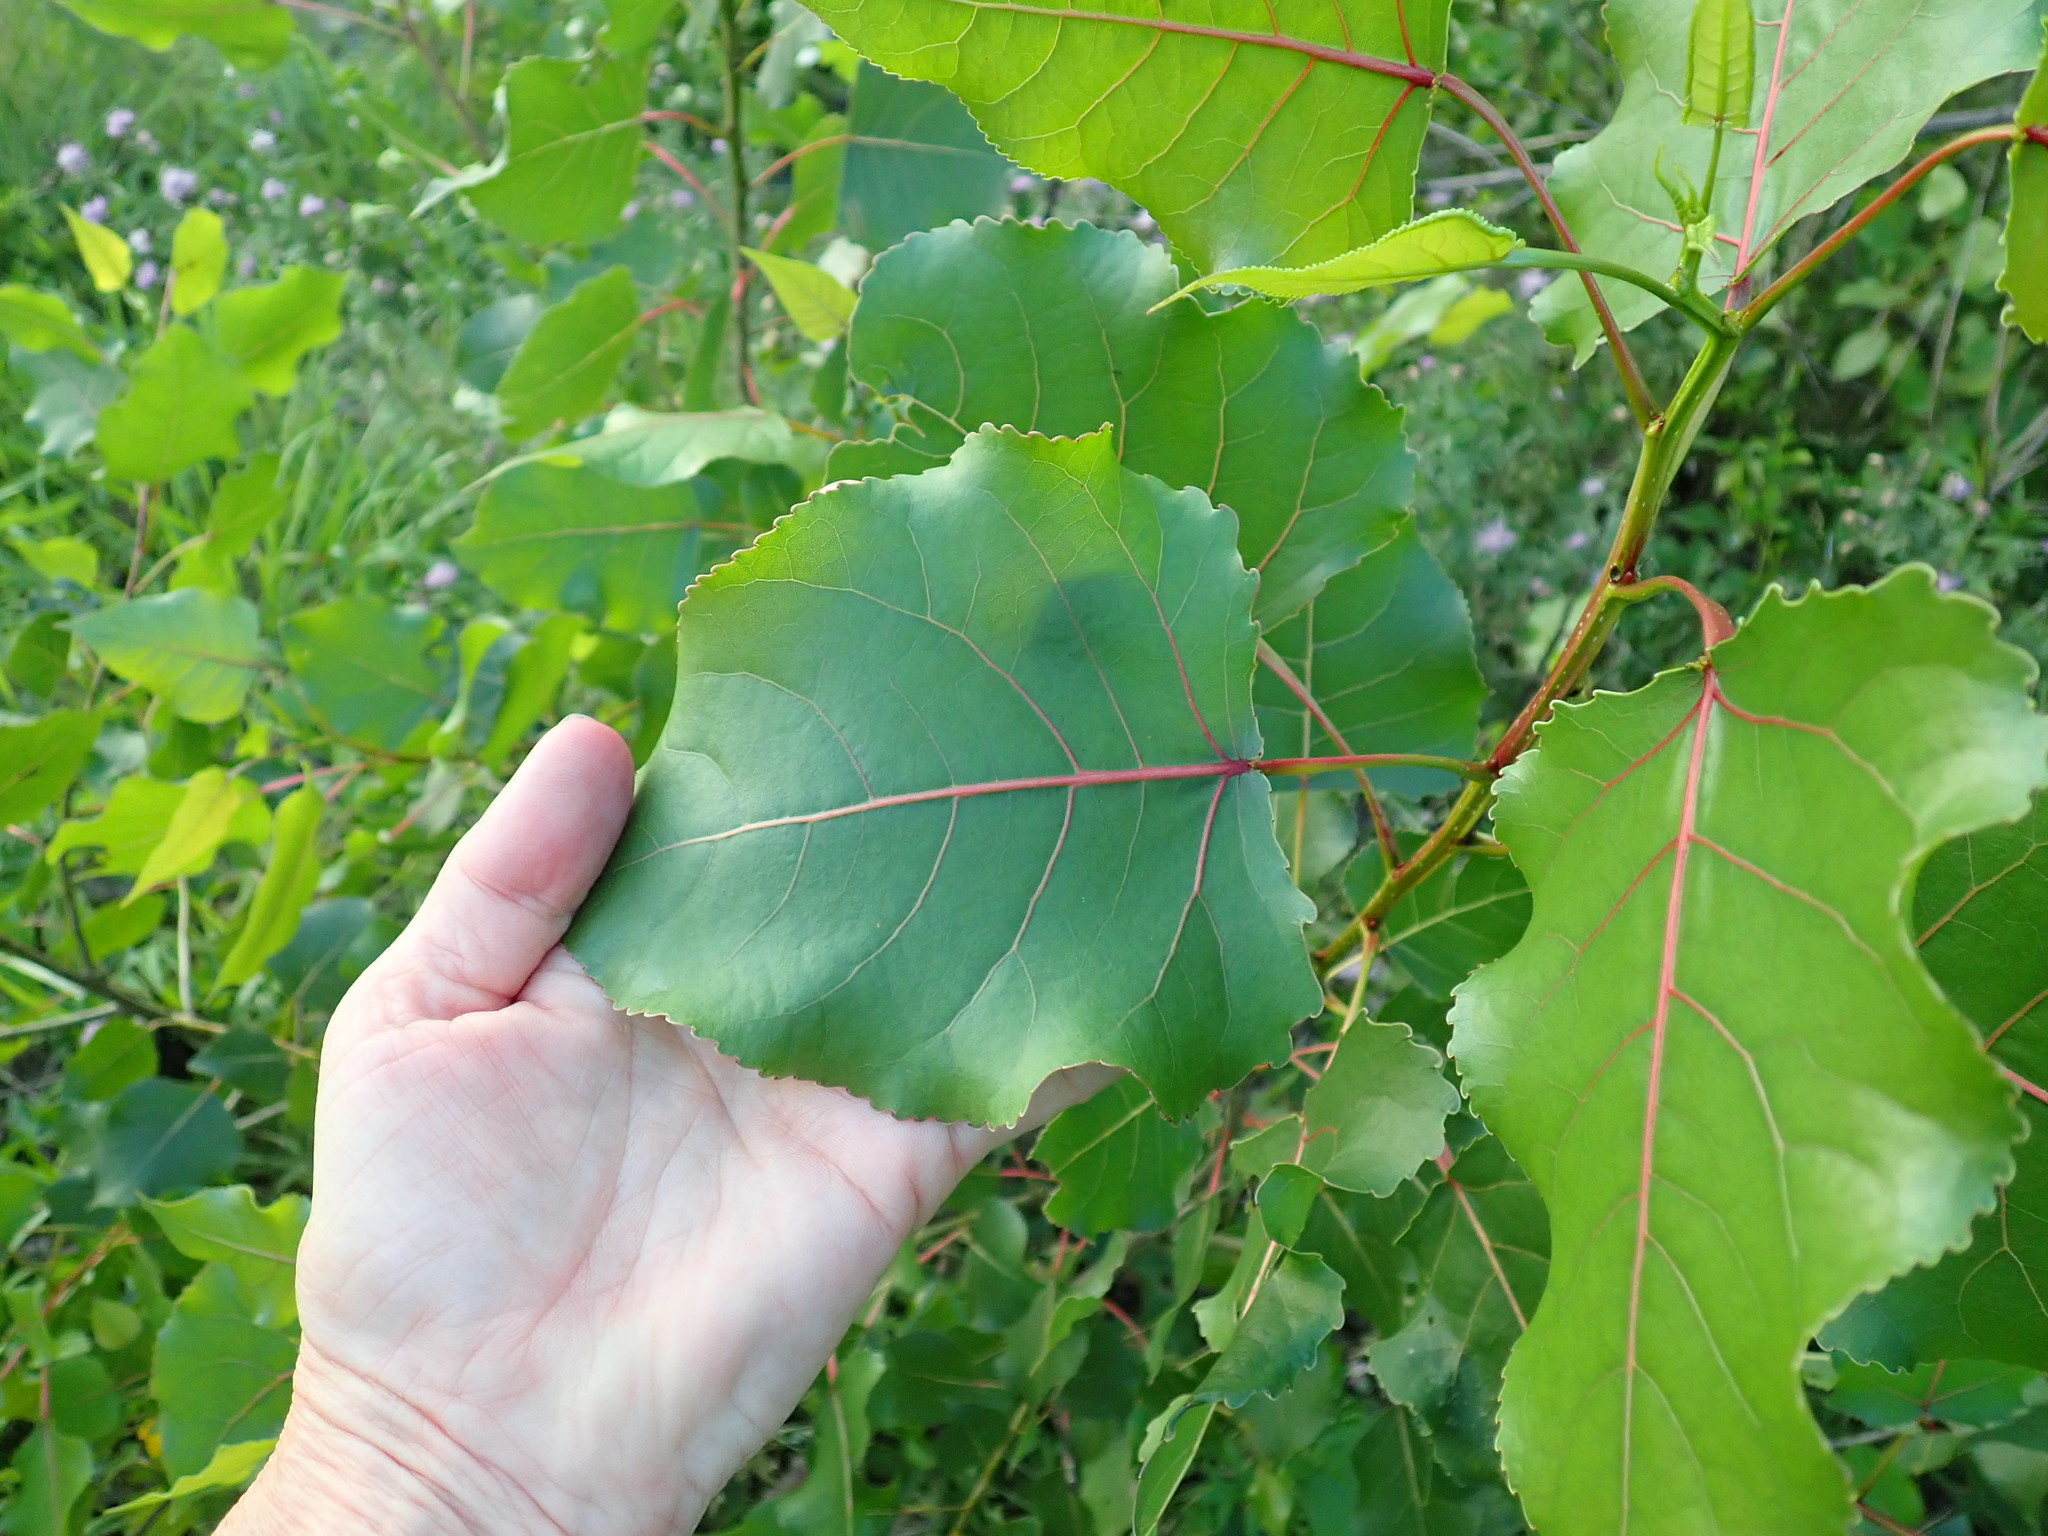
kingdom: Plantae
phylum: Tracheophyta
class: Magnoliopsida
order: Malpighiales
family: Salicaceae
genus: Populus
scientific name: Populus deltoides
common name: Eastern cottonwood
